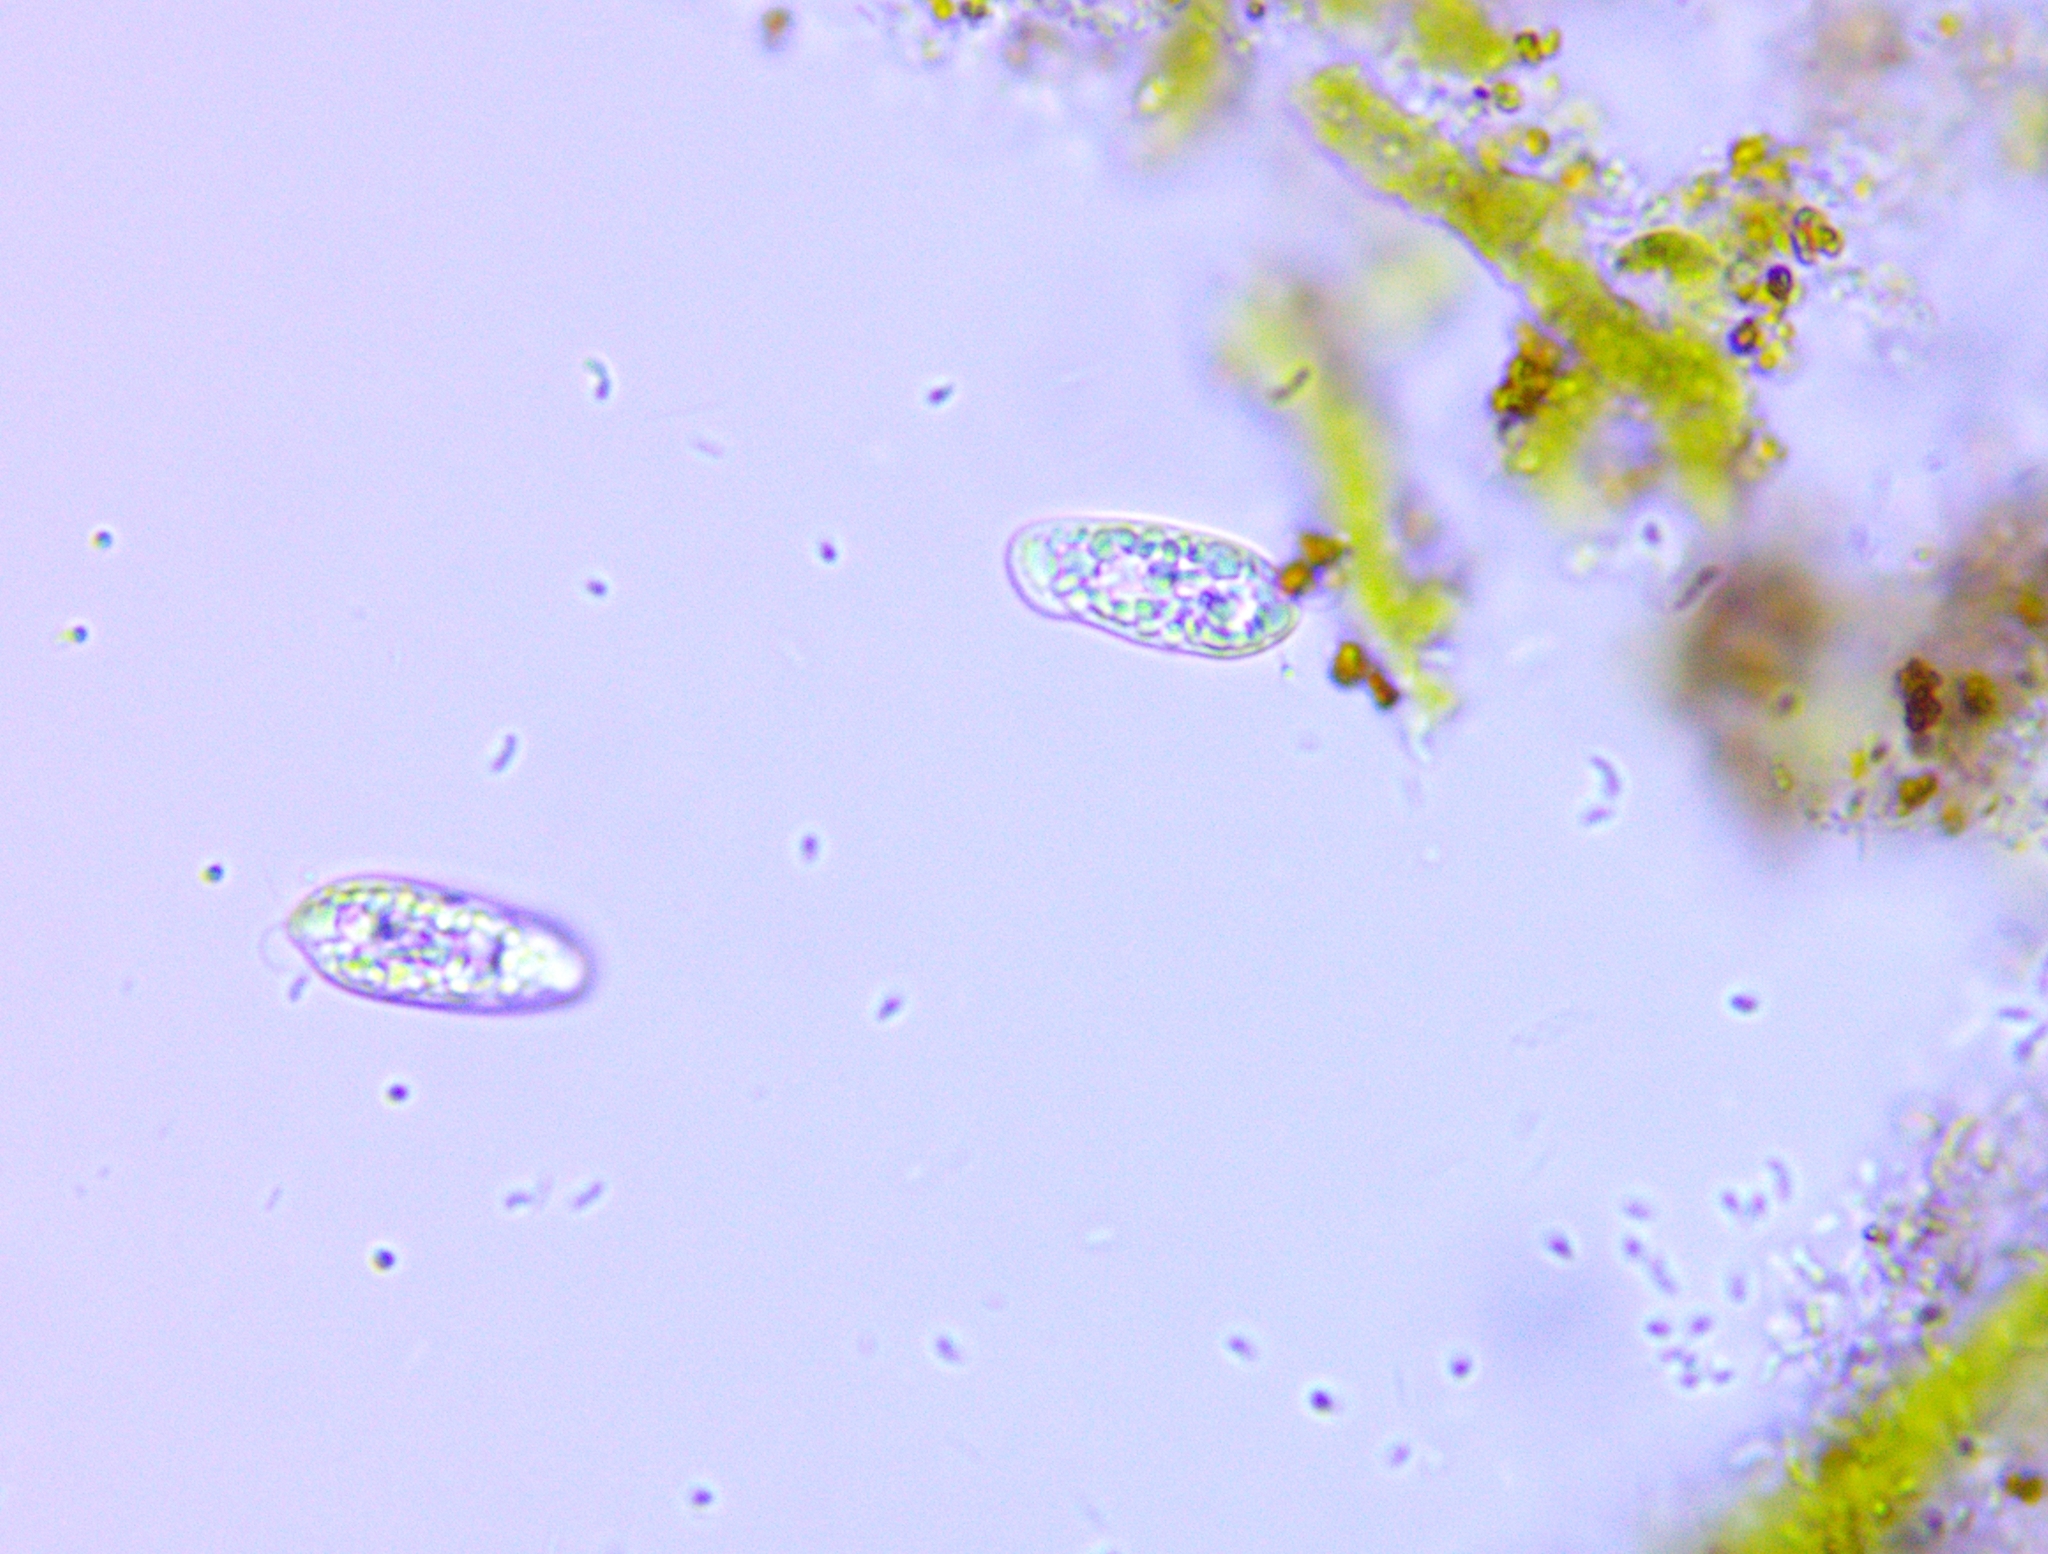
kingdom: Chromista
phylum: Cryptophyta
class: Cryptophyceae
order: Cryptomonadales
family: Cryptomonadaceae
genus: Cryptomonas
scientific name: Cryptomonas paramaecium
